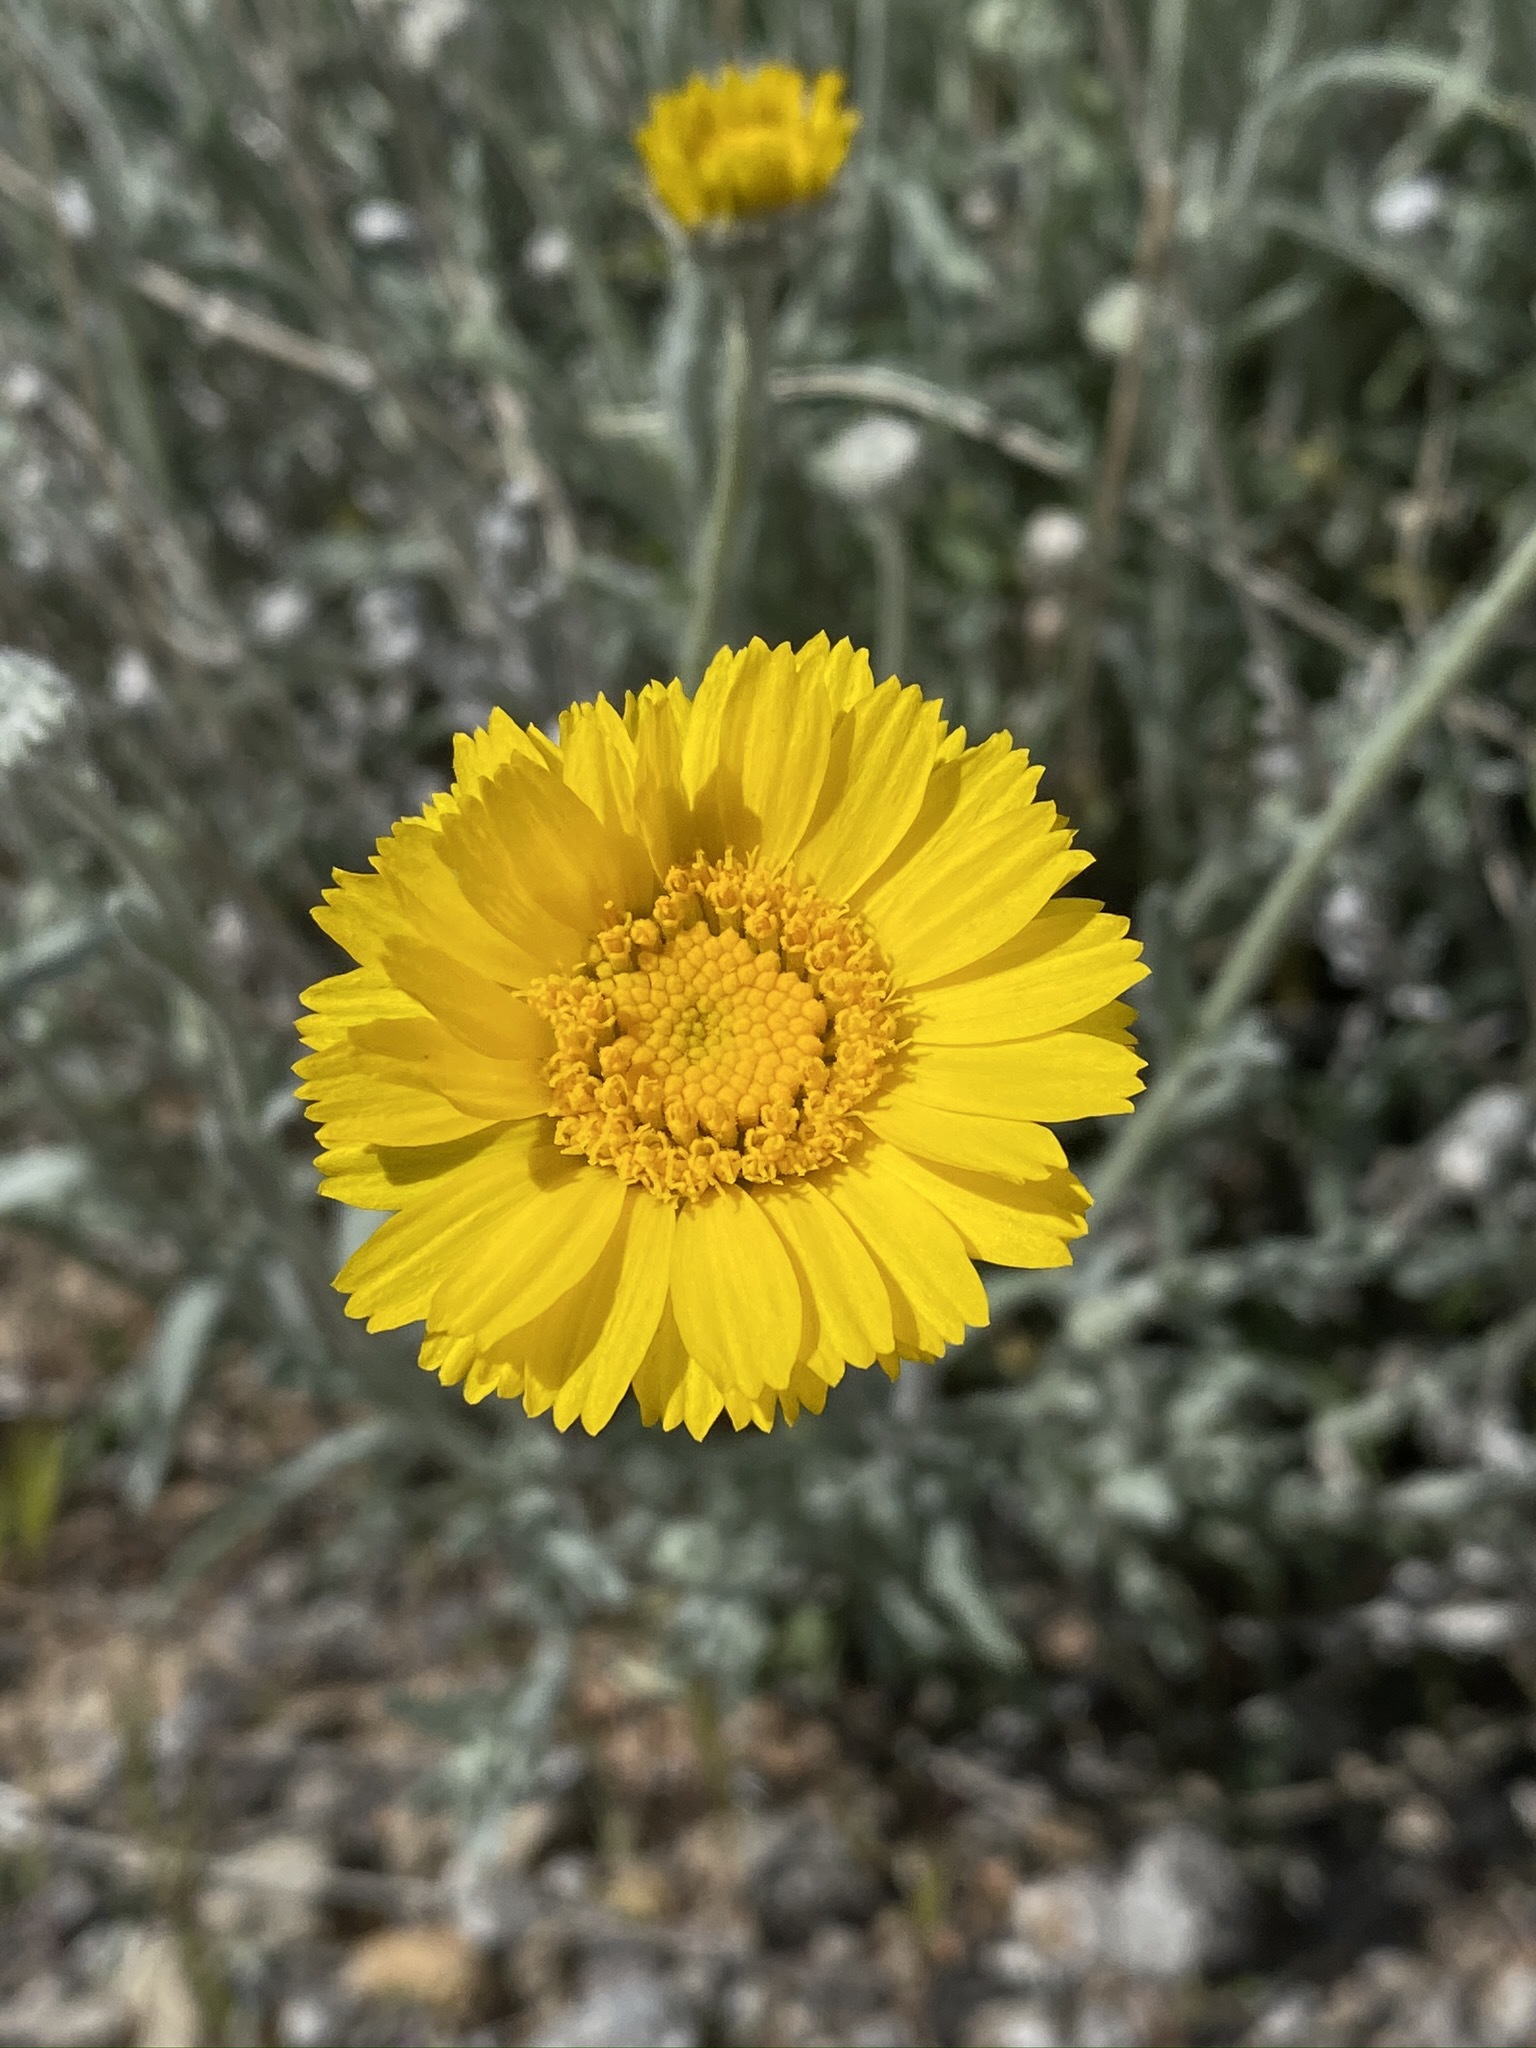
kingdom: Plantae
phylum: Tracheophyta
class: Magnoliopsida
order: Asterales
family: Asteraceae
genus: Baileya
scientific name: Baileya multiradiata
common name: Desert-marigold
